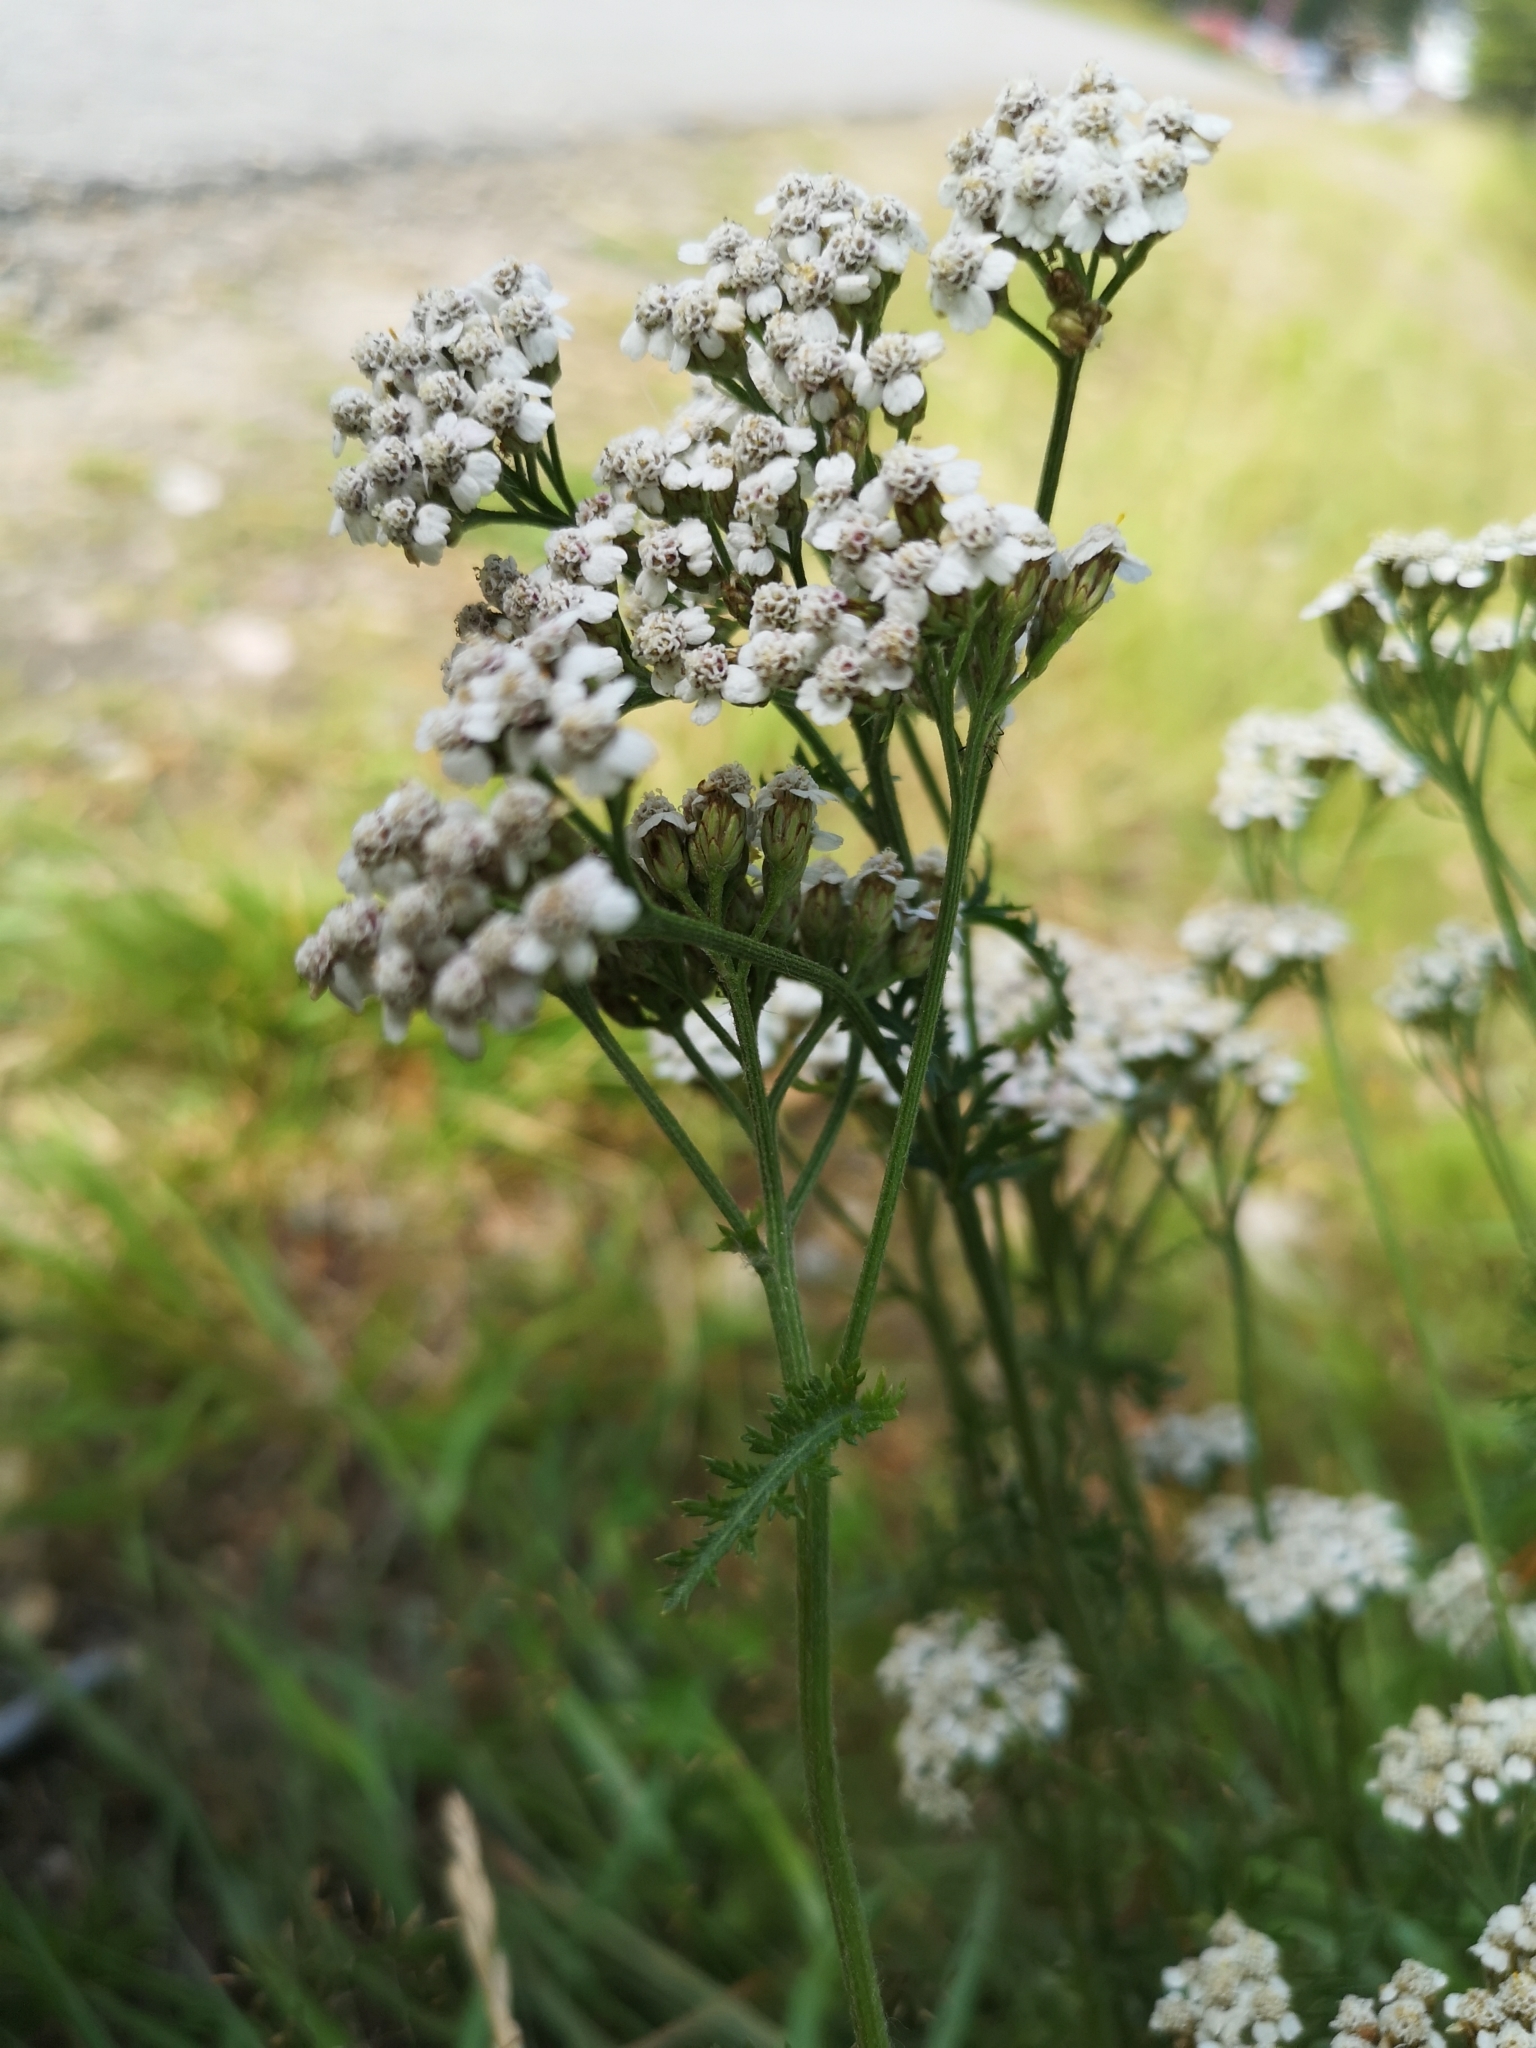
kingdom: Plantae
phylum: Tracheophyta
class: Magnoliopsida
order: Asterales
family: Asteraceae
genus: Achillea
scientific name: Achillea millefolium
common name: Yarrow
